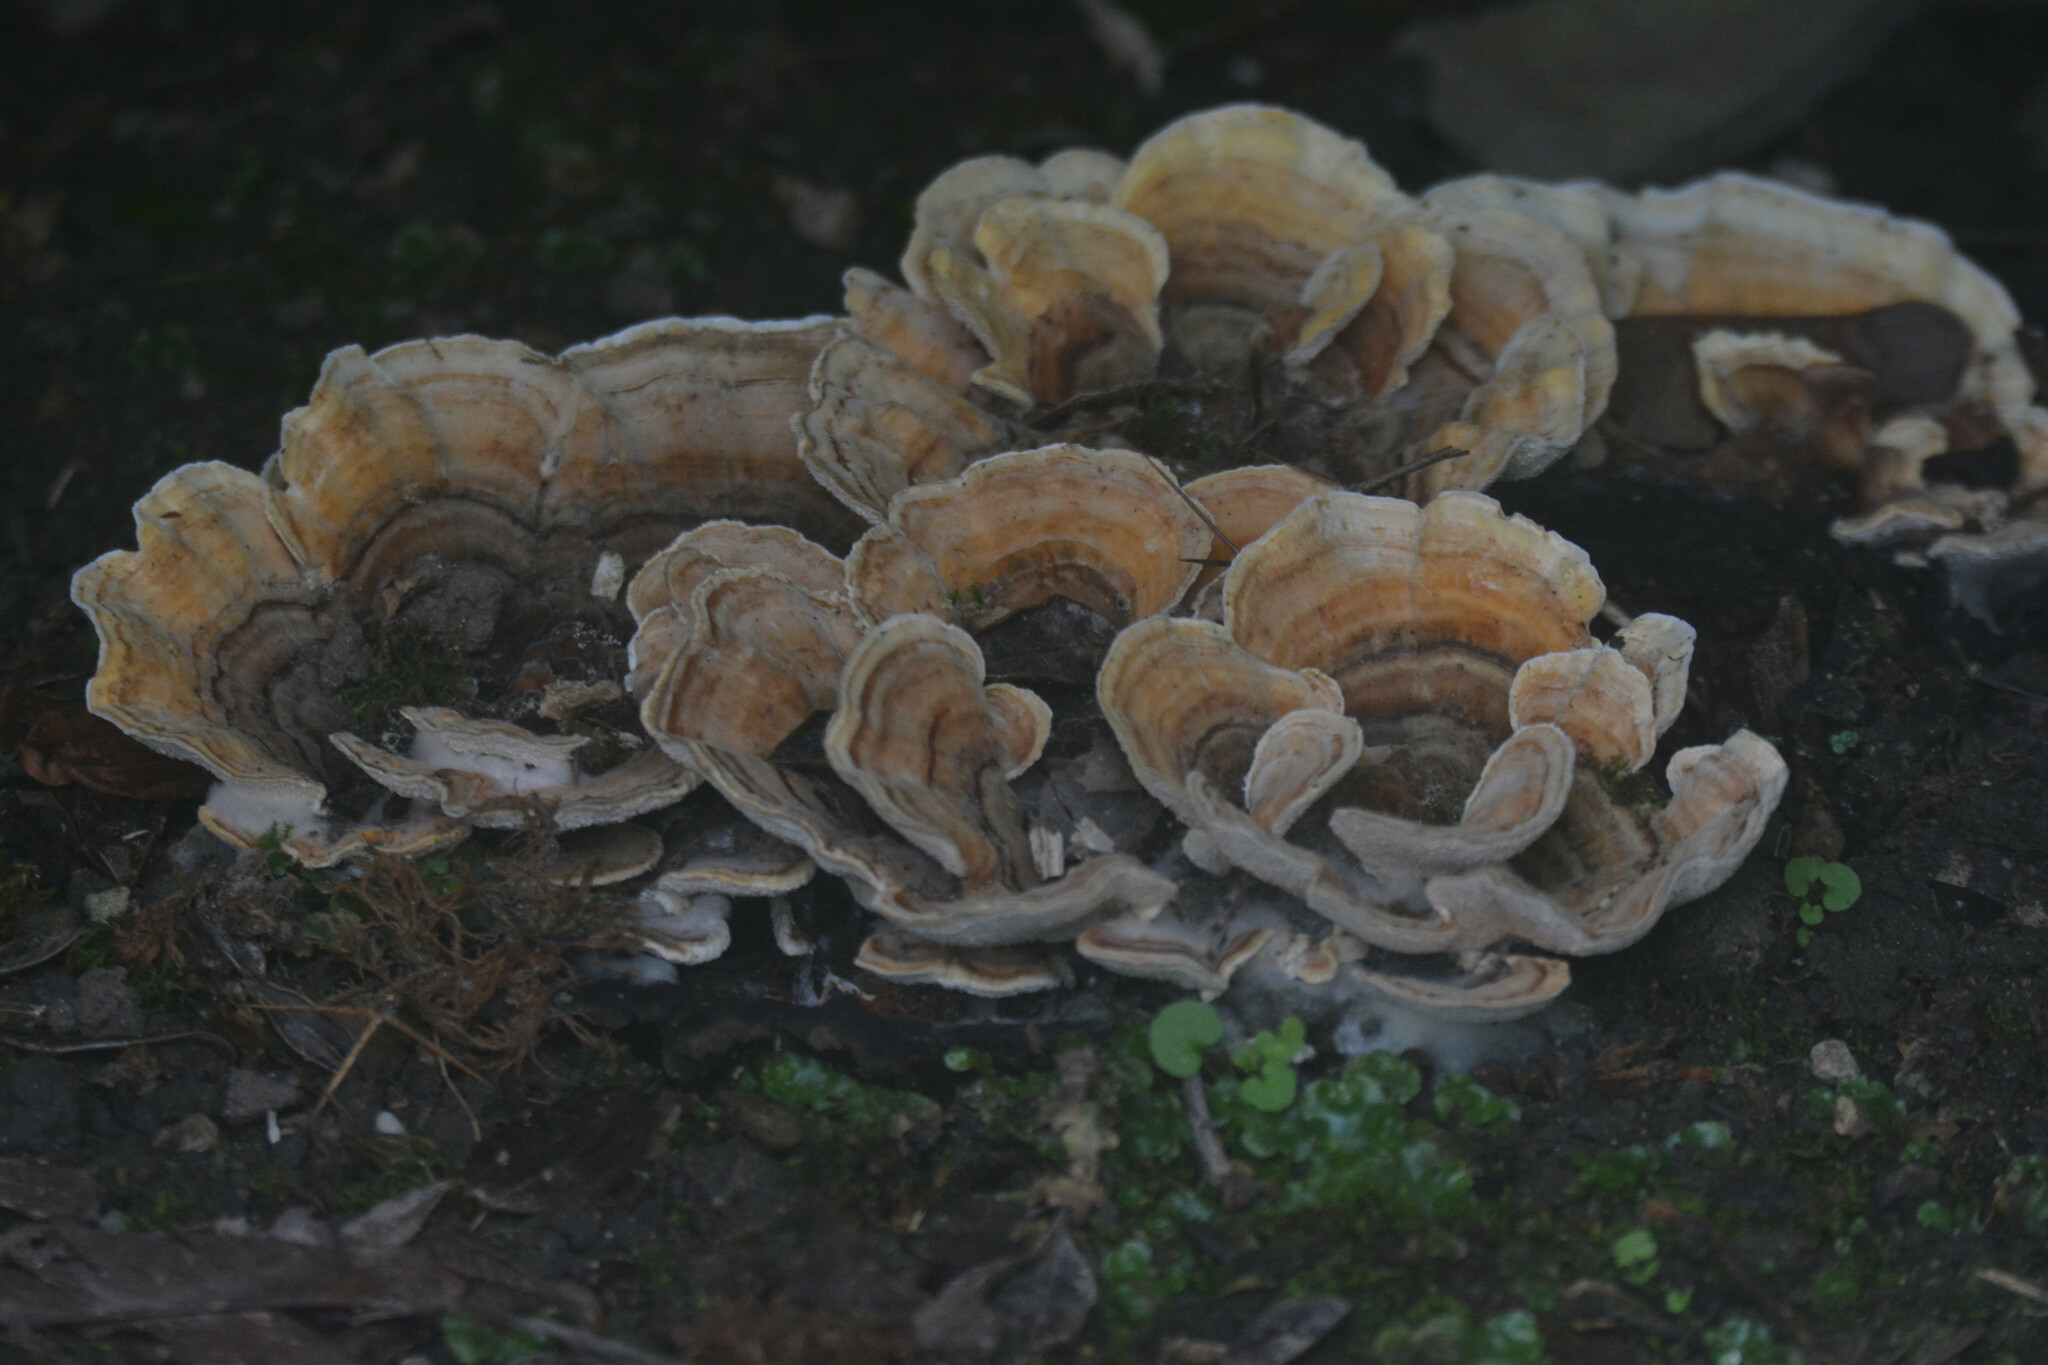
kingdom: Fungi
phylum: Basidiomycota
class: Agaricomycetes
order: Polyporales
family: Polyporaceae
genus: Trametes
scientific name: Trametes versicolor
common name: Turkeytail
